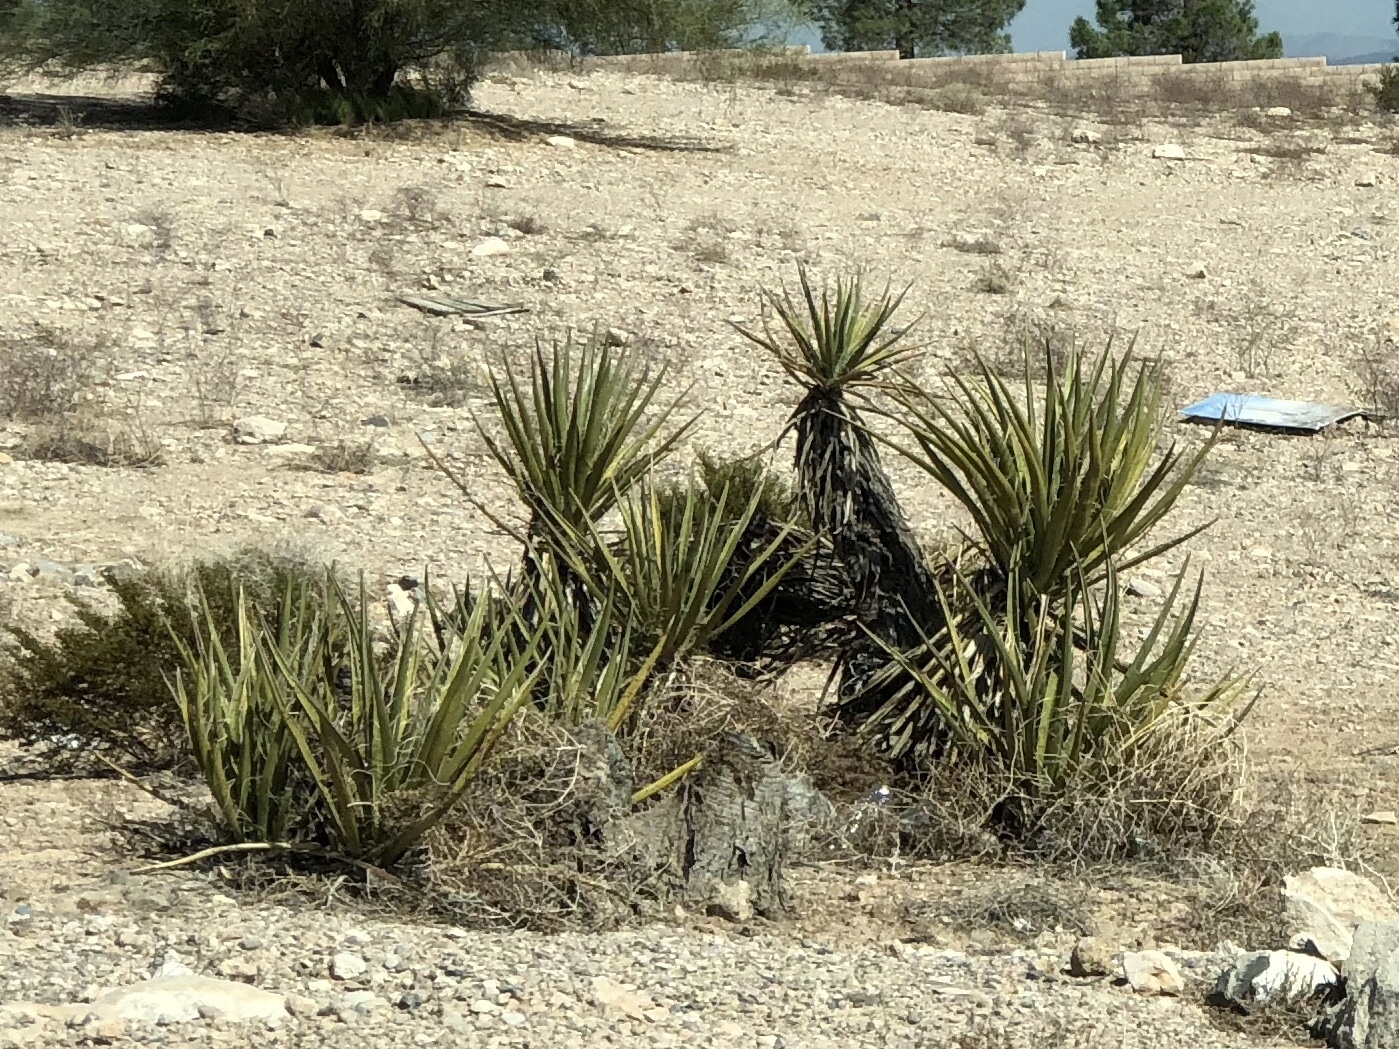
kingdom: Plantae
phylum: Tracheophyta
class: Liliopsida
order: Asparagales
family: Asparagaceae
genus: Yucca
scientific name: Yucca schidigera
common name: Mojave yucca
